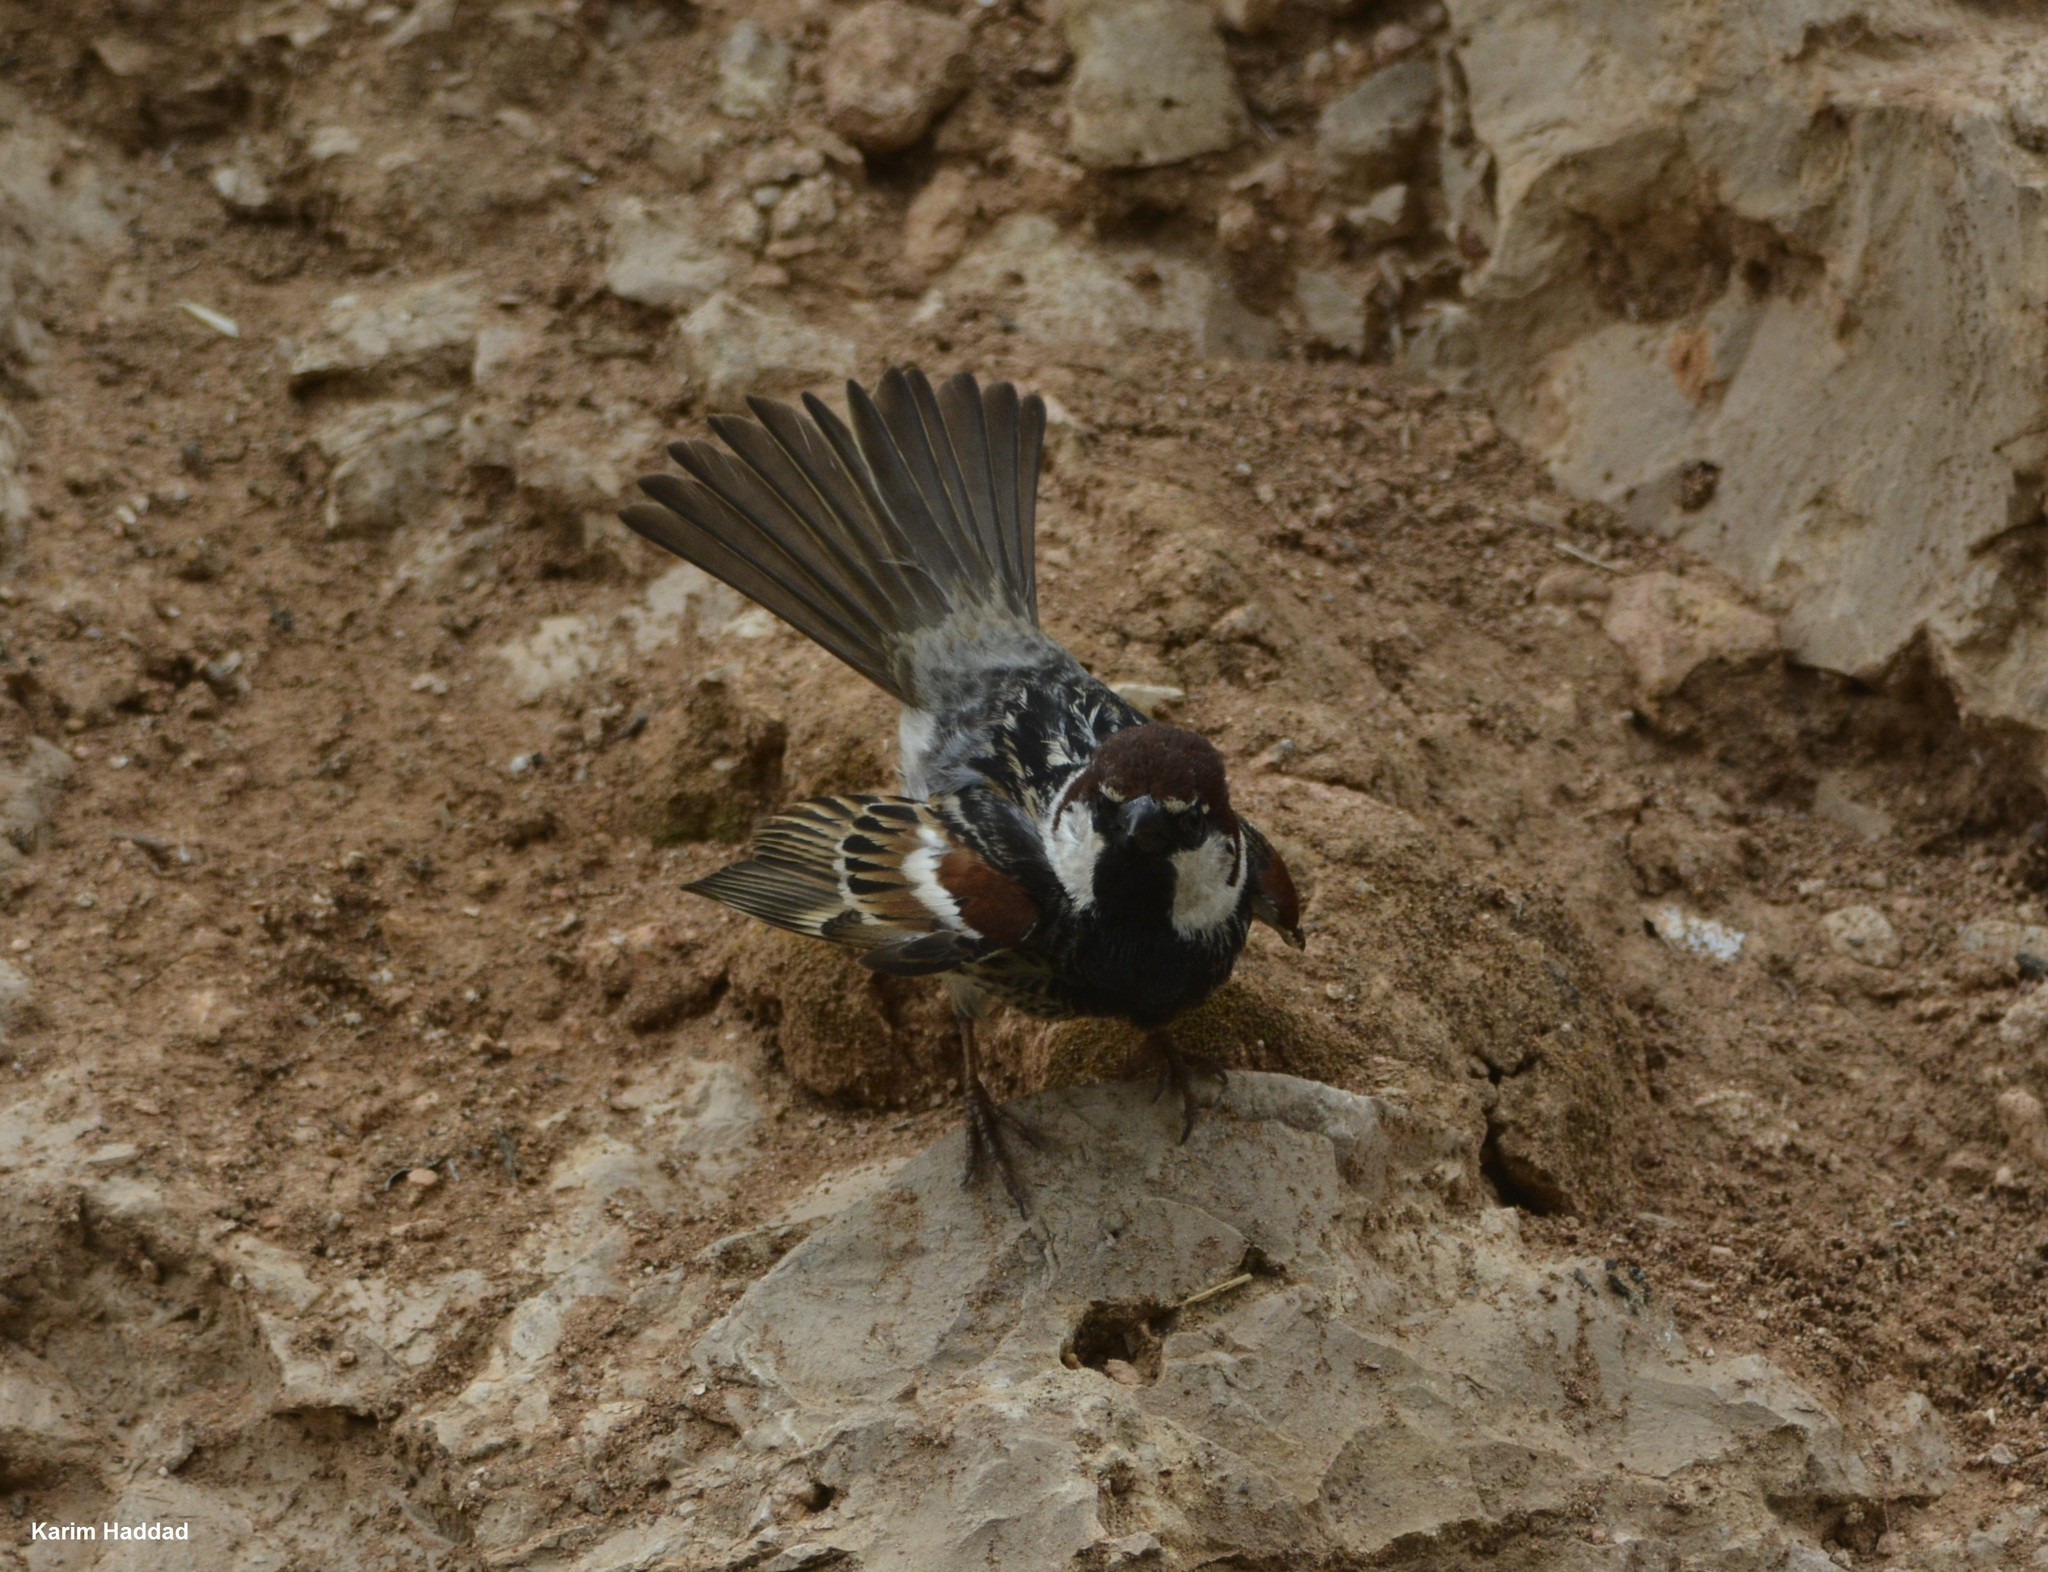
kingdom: Animalia
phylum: Chordata
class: Aves
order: Passeriformes
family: Passeridae
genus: Passer
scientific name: Passer hispaniolensis
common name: Spanish sparrow
